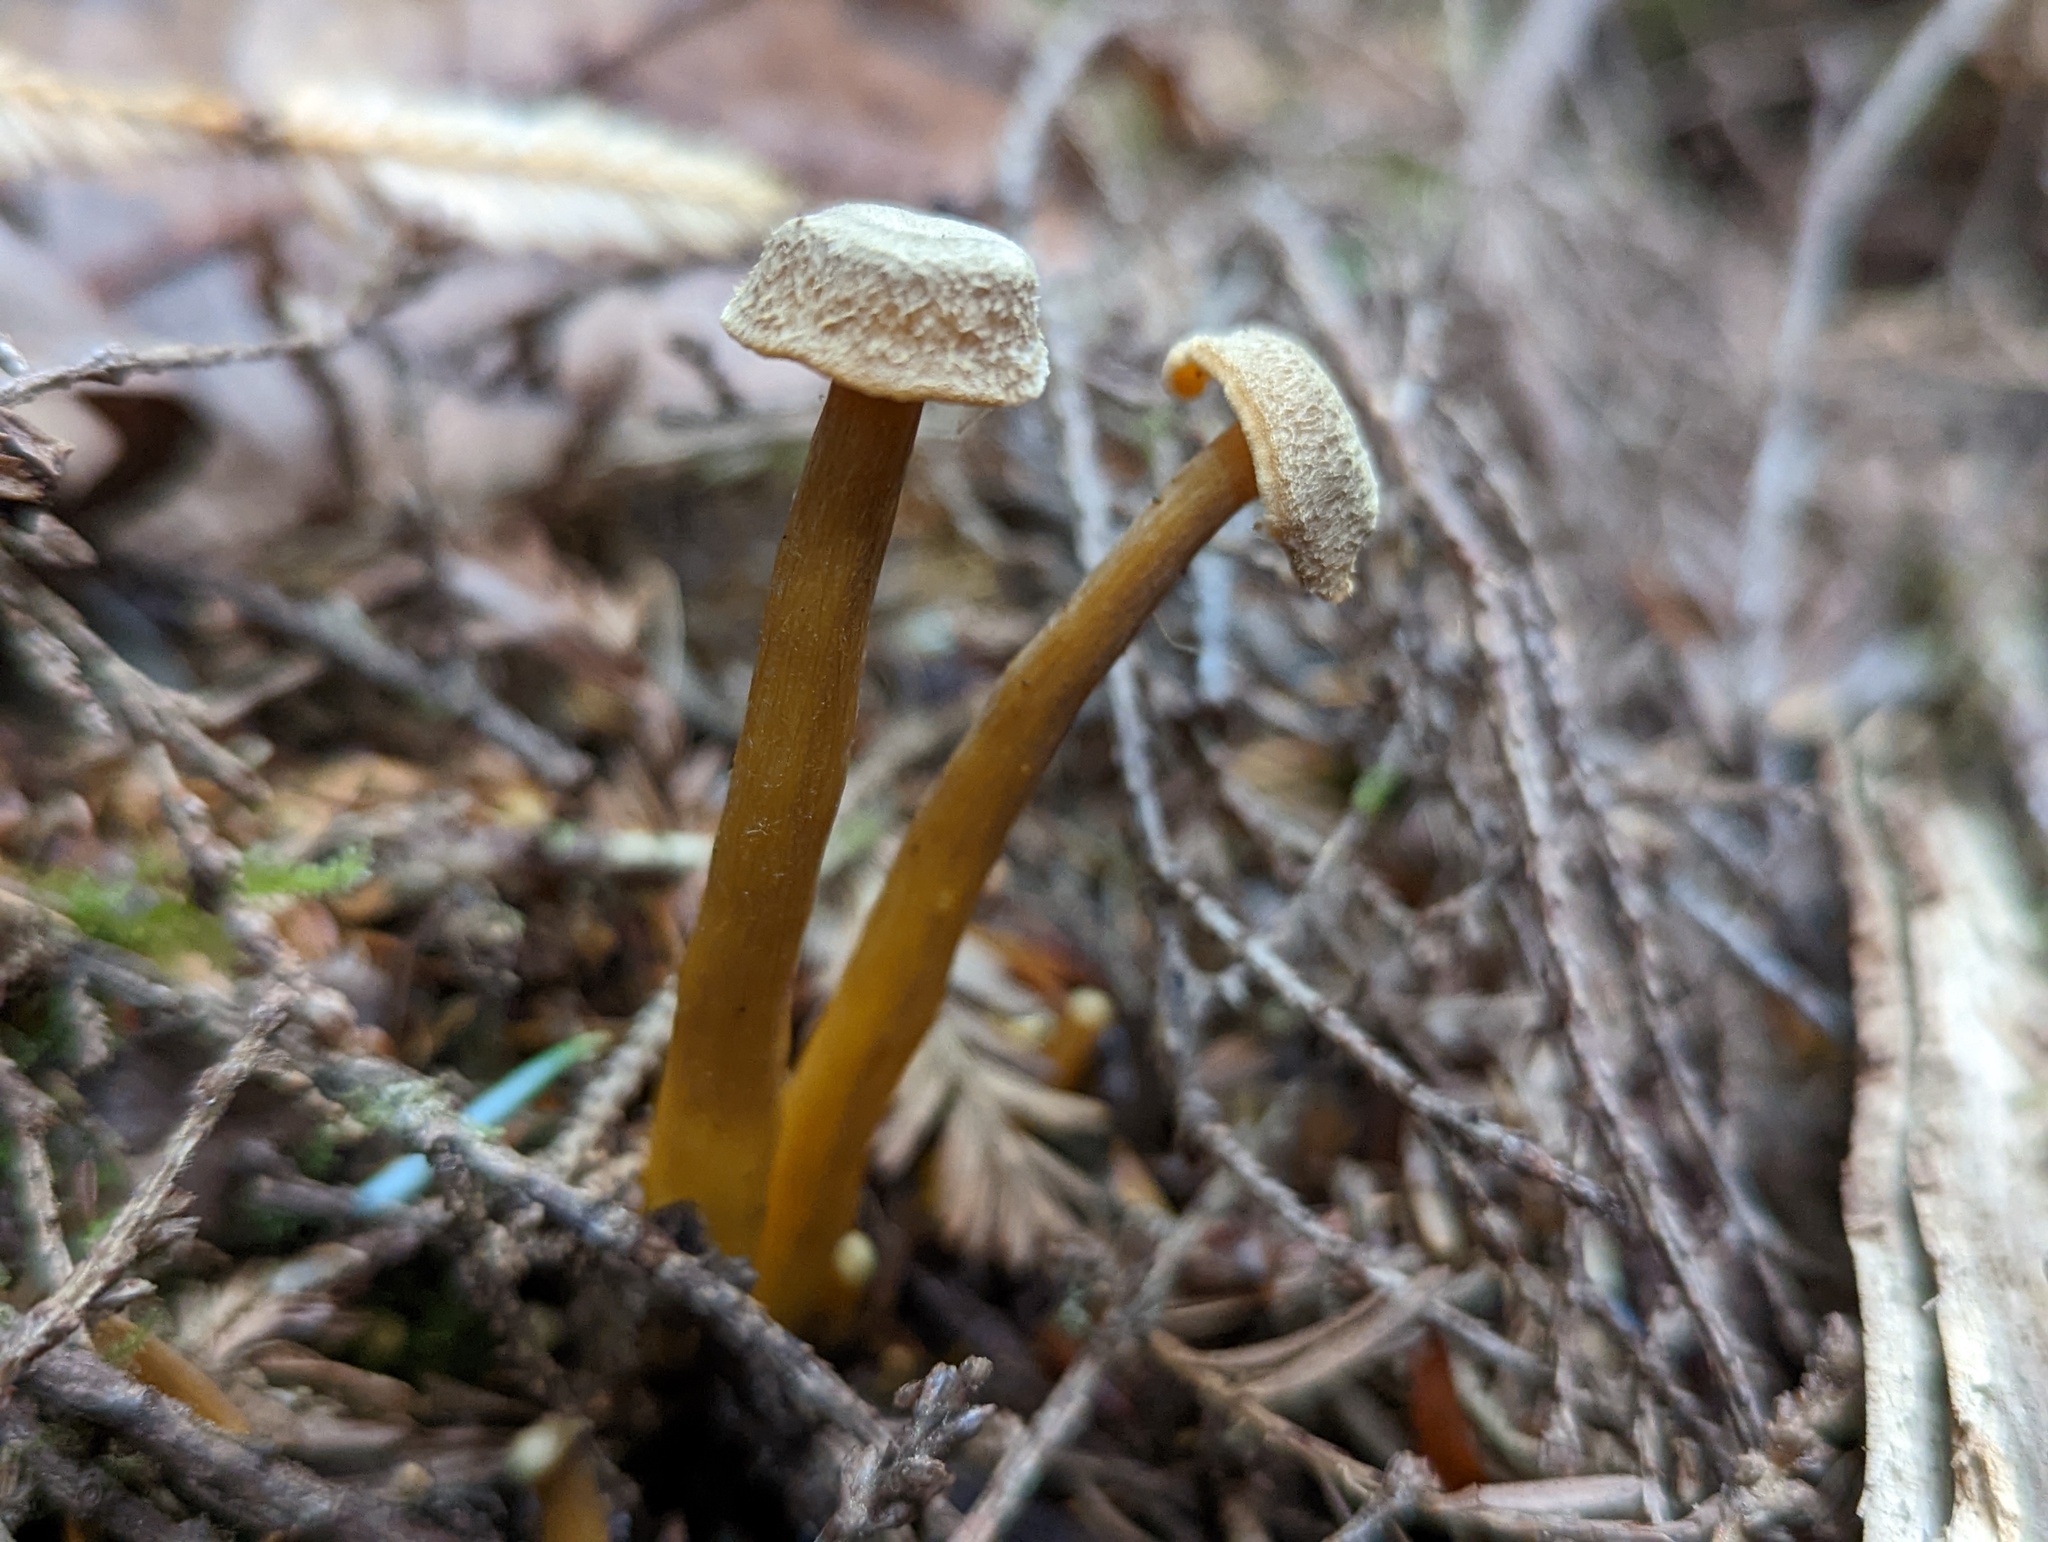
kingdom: Fungi
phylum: Basidiomycota
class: Agaricomycetes
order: Cantharellales
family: Hydnaceae
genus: Craterellus
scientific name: Craterellus tubaeformis
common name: Yellowfoot
